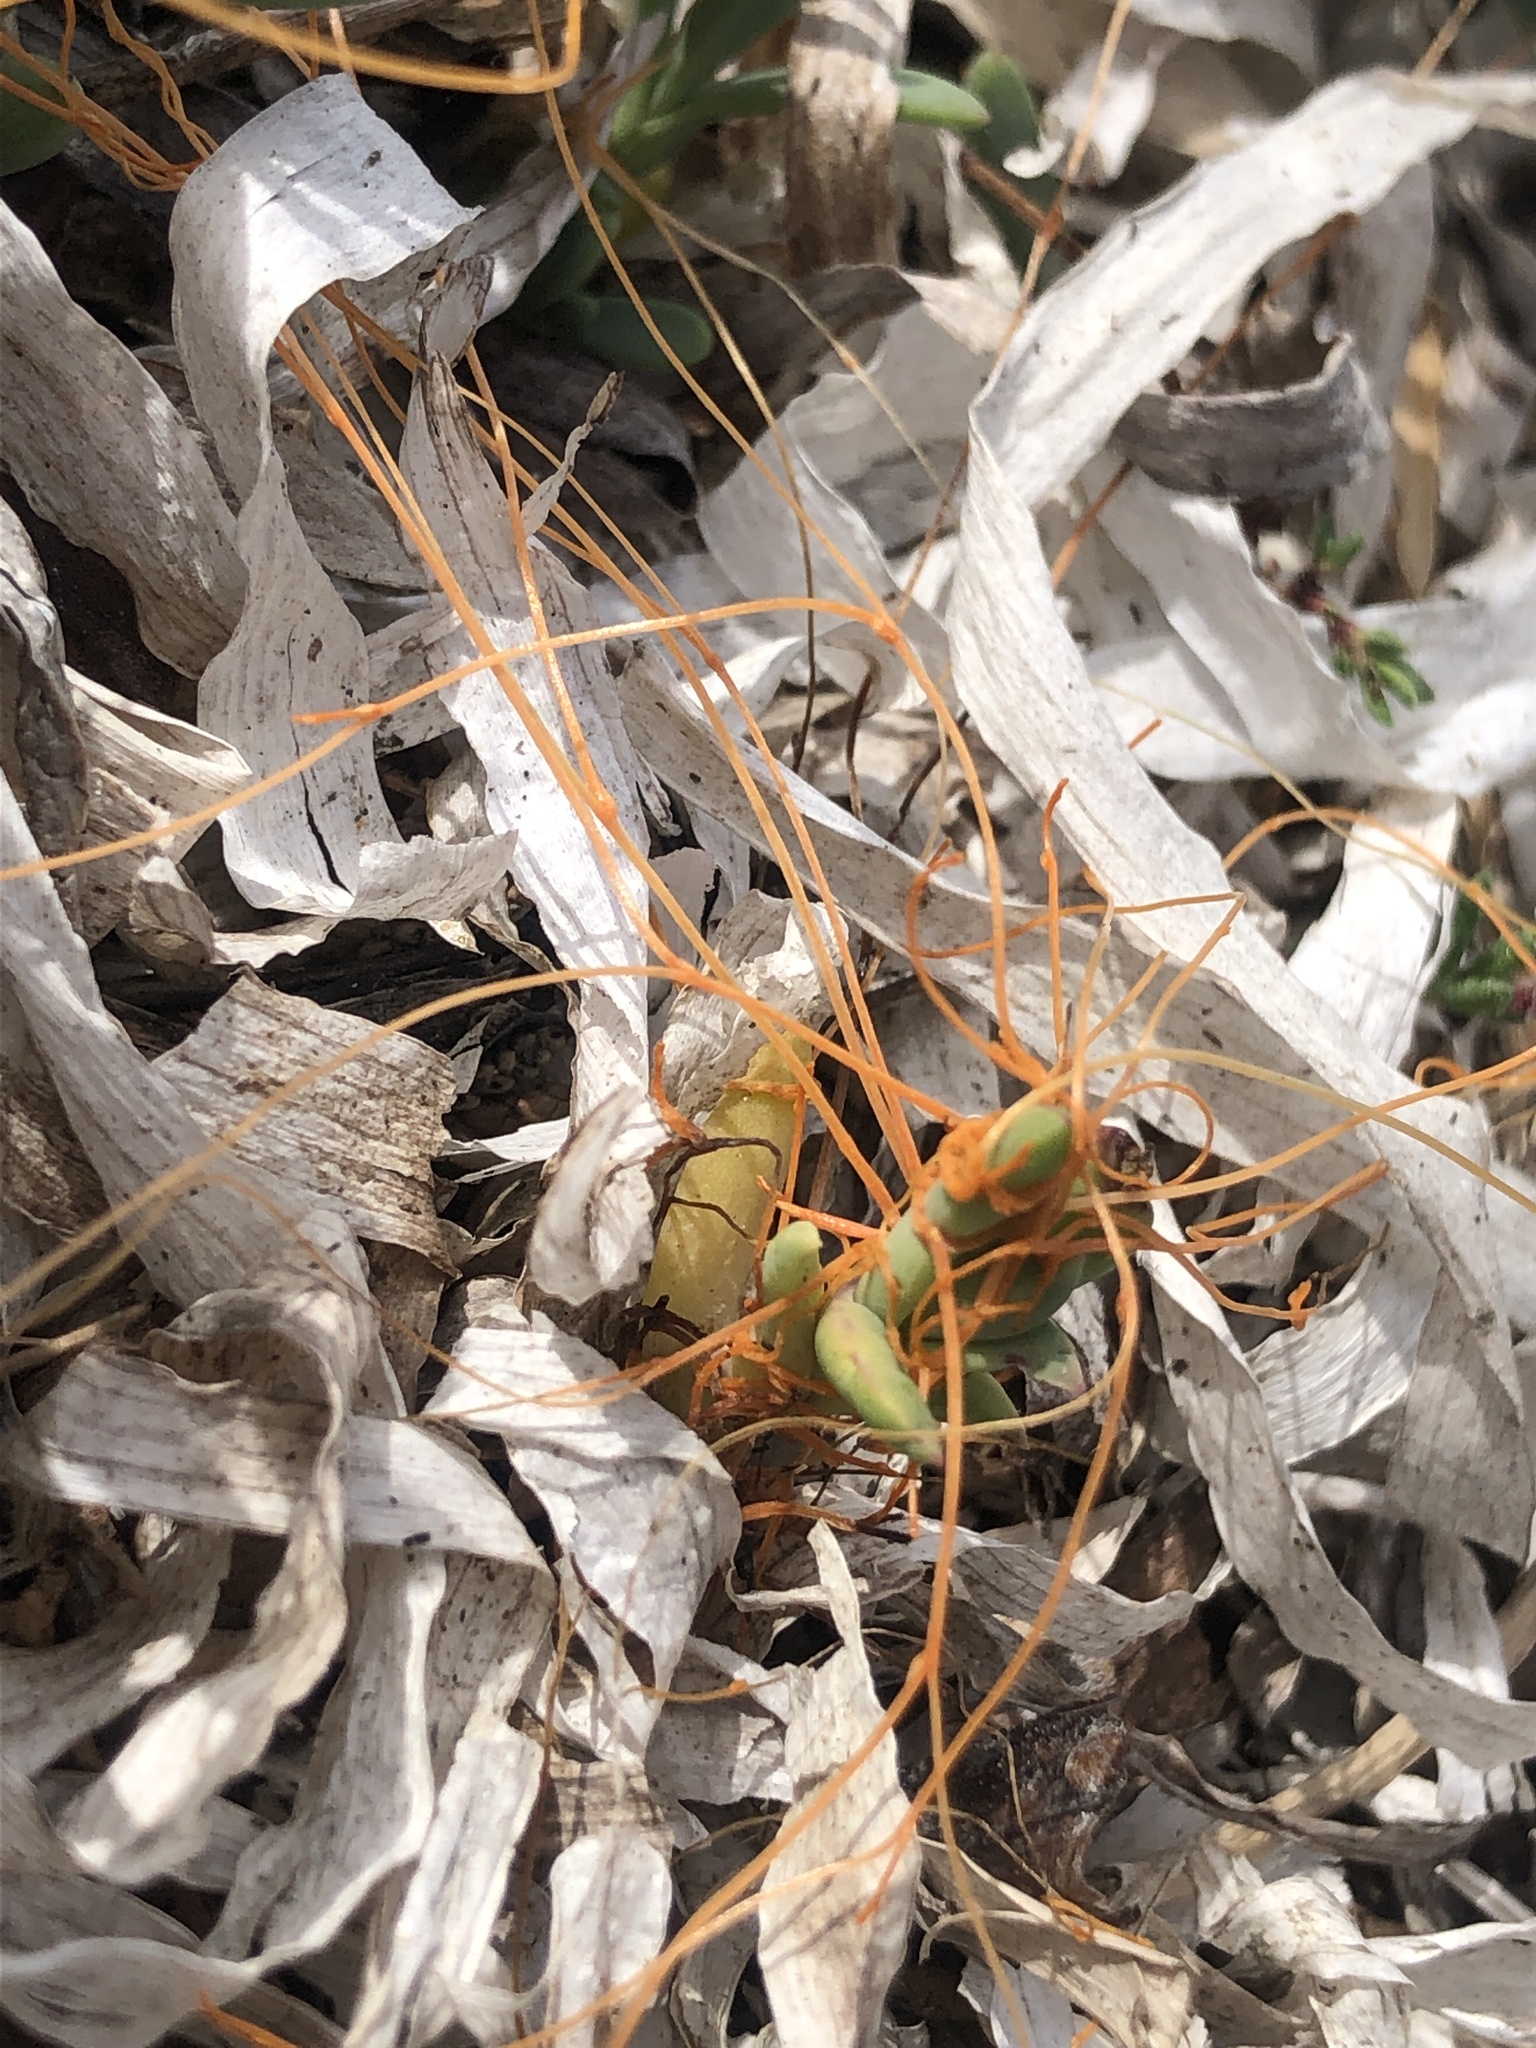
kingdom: Plantae
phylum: Tracheophyta
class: Magnoliopsida
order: Solanales
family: Convolvulaceae
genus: Cuscuta
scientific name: Cuscuta pacifica
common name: Large saltmarsh dodder
